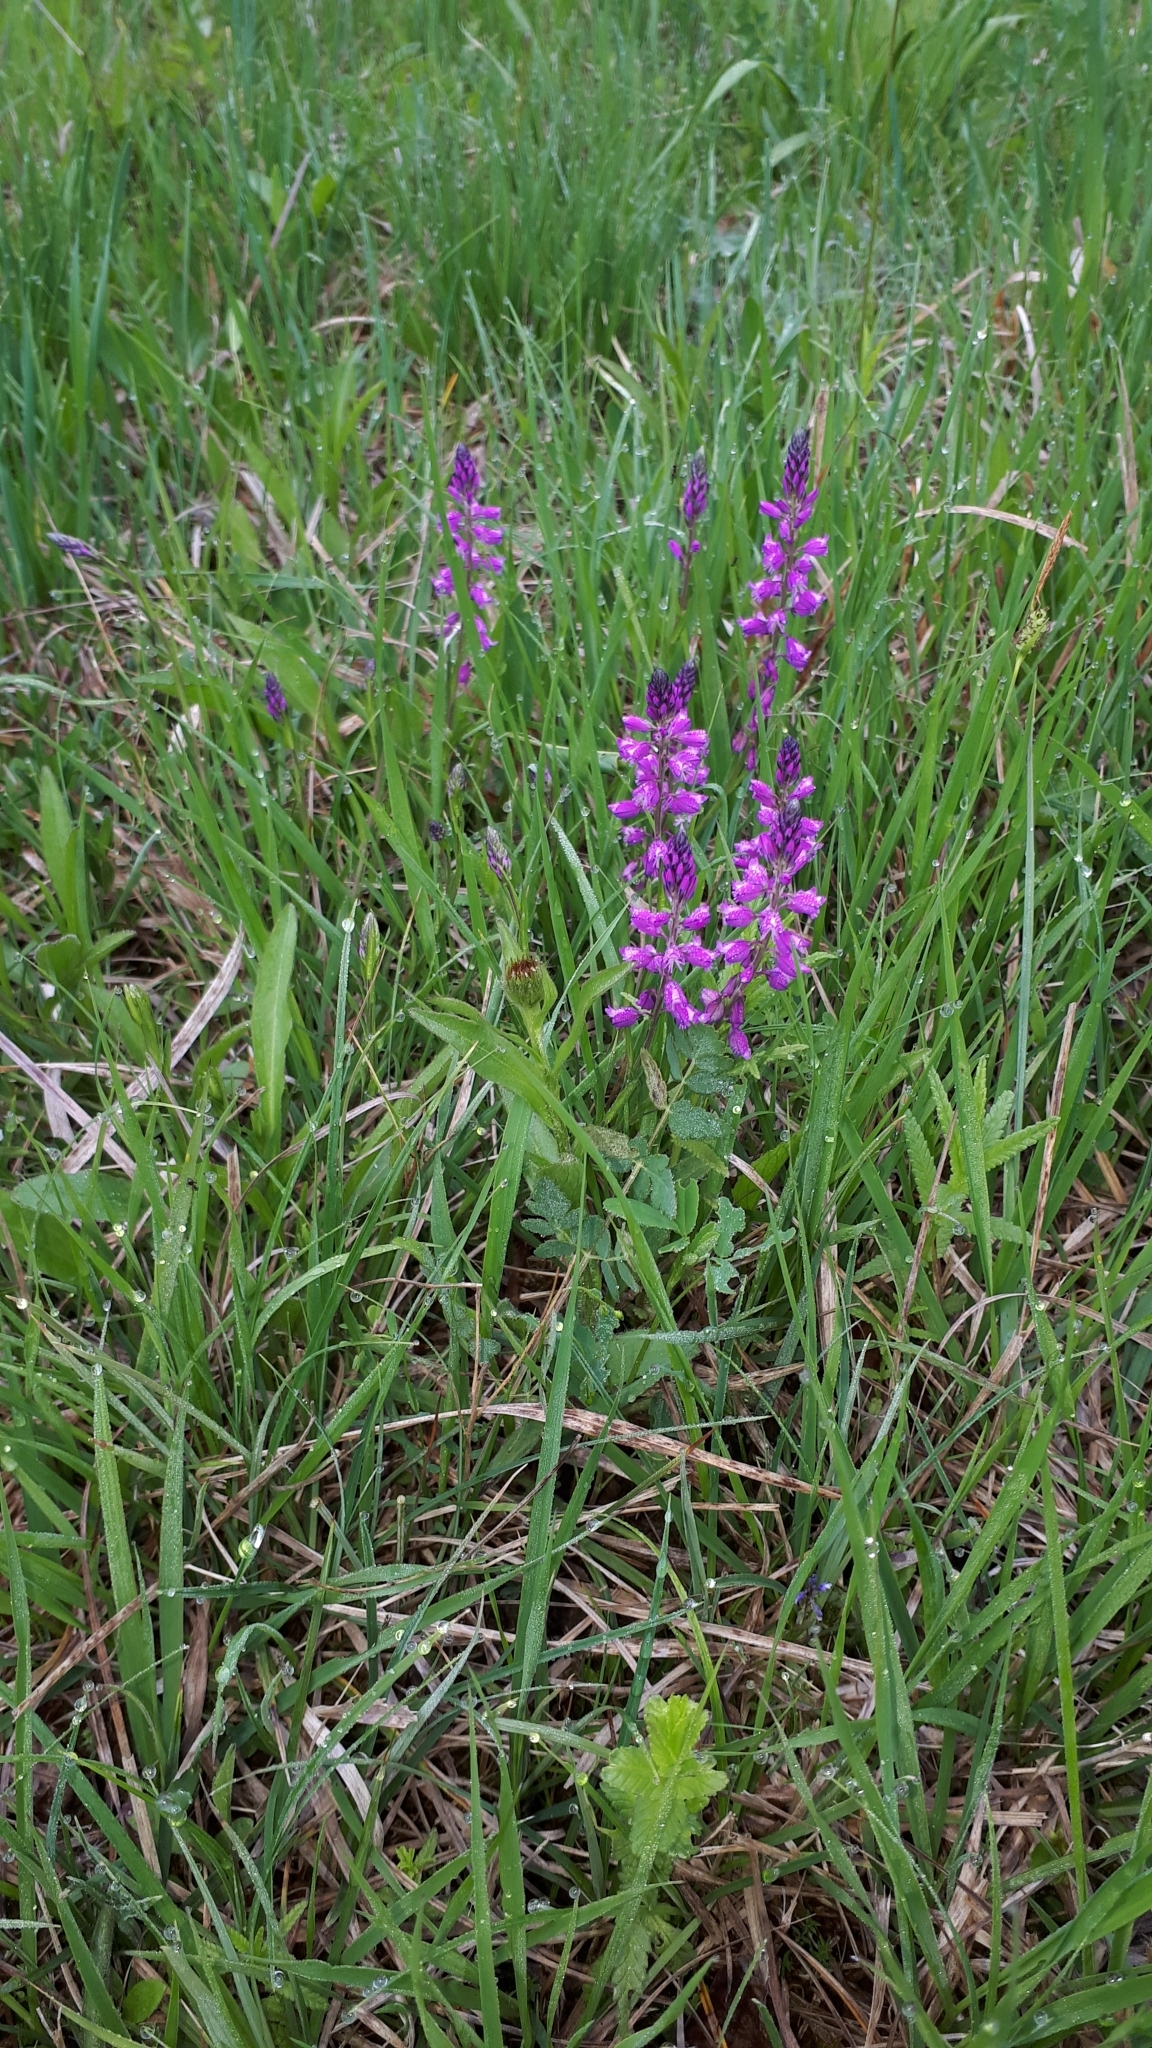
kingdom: Plantae
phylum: Tracheophyta
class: Magnoliopsida
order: Fabales
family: Polygalaceae
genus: Polygala
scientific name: Polygala comosa
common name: Tufted milkwort
